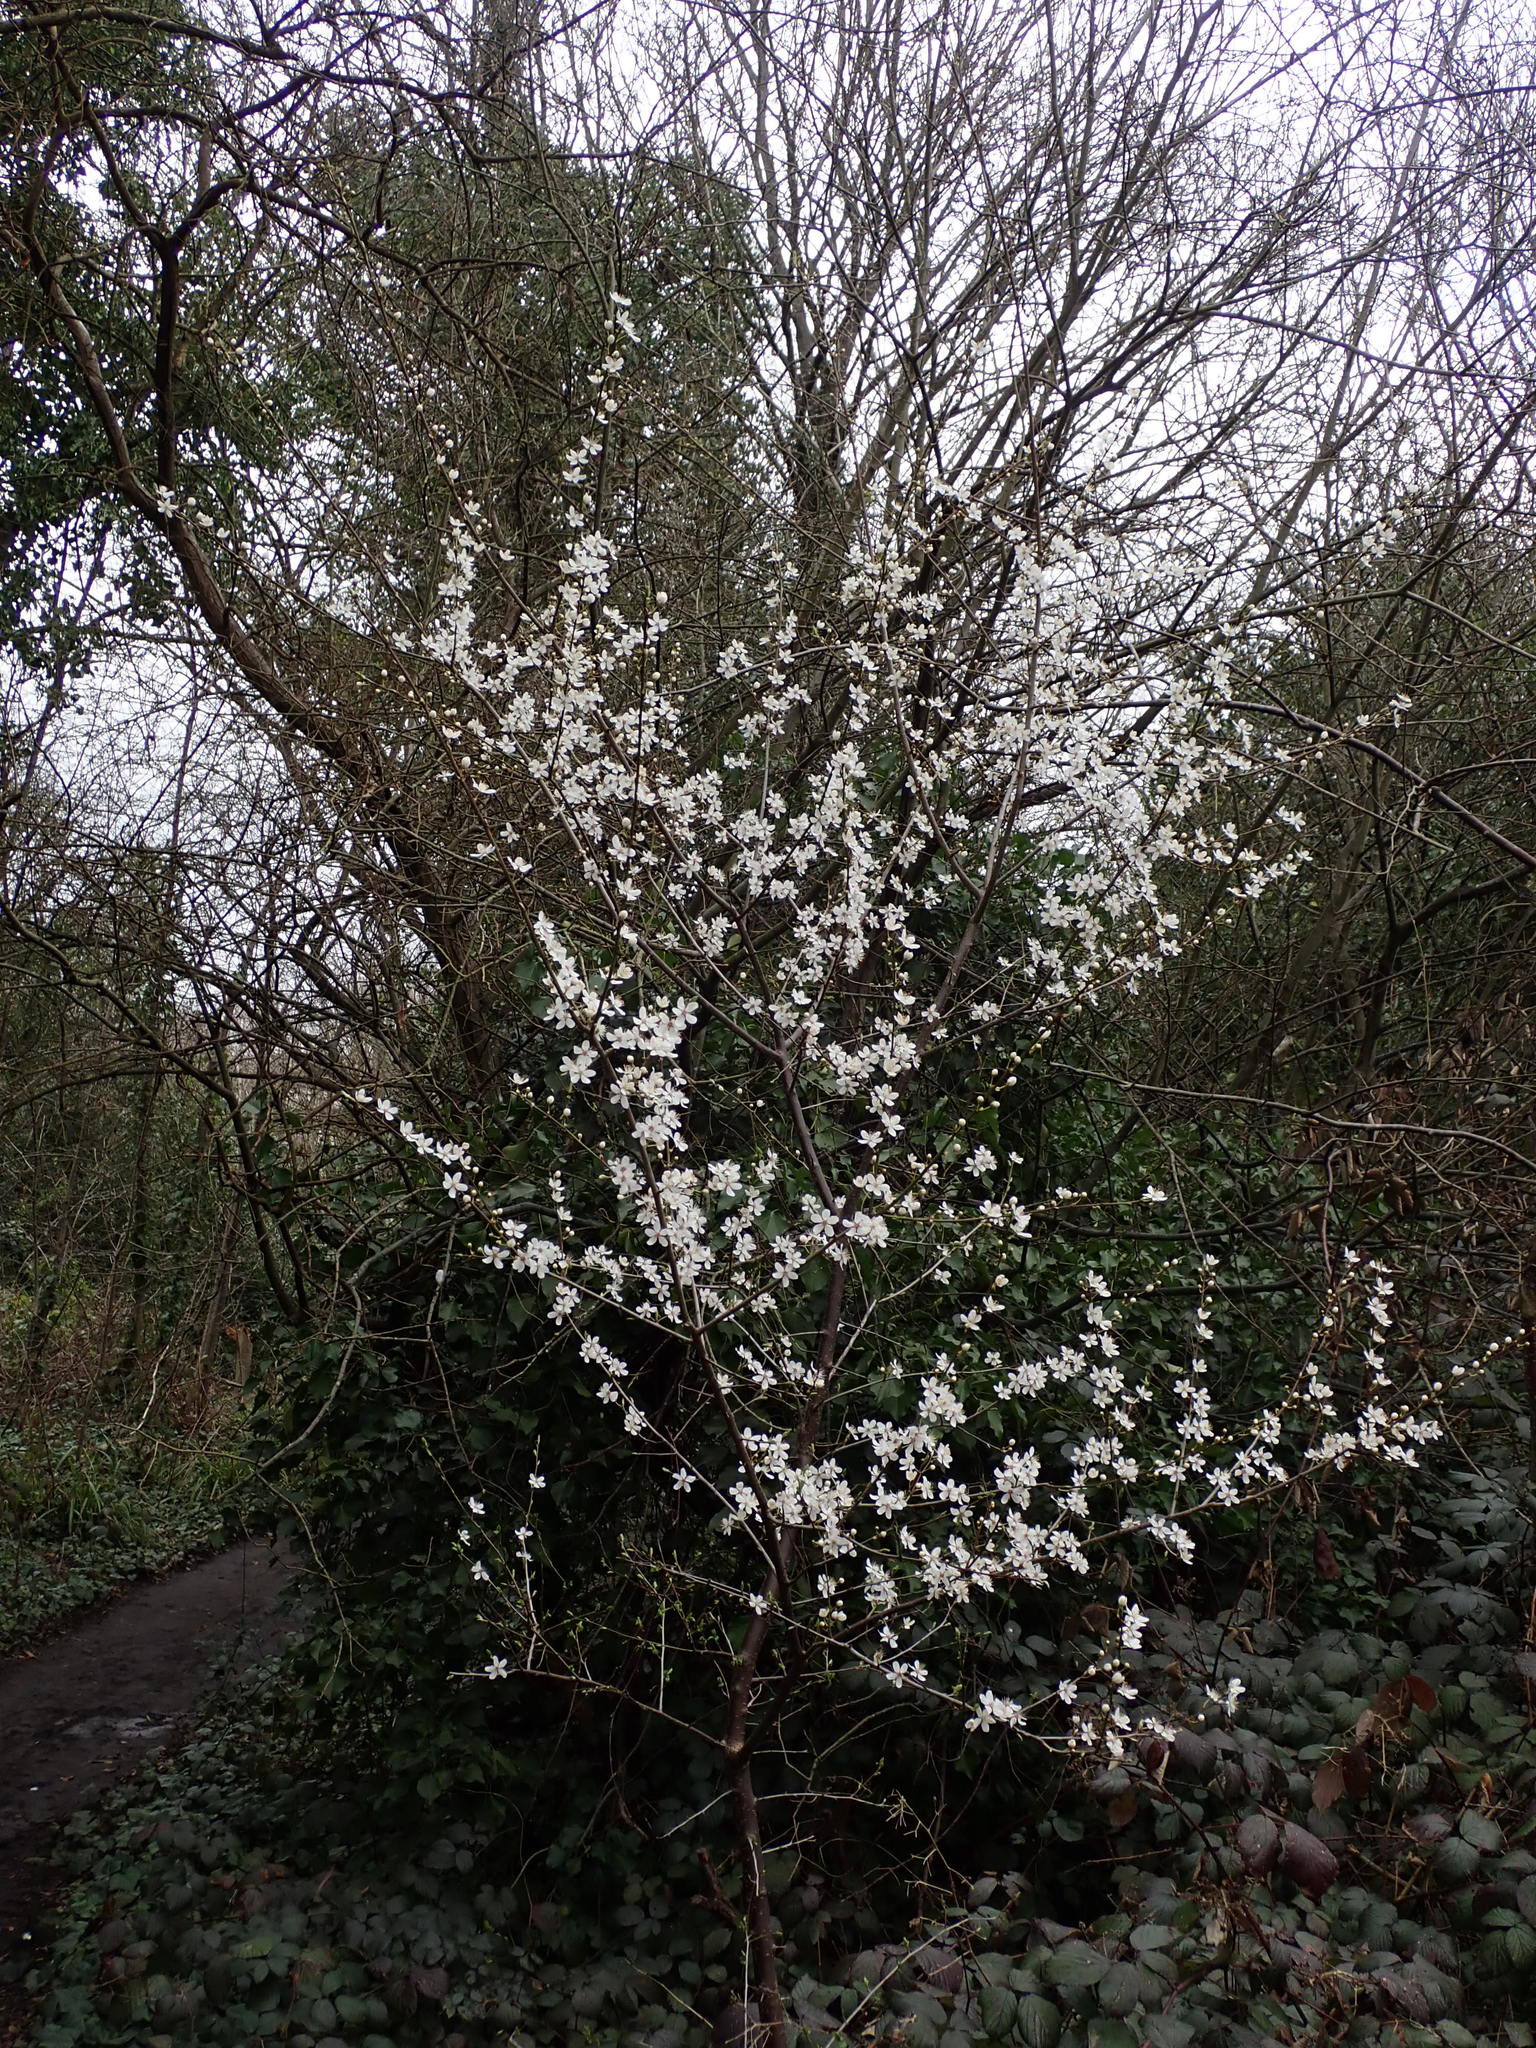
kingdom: Plantae
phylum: Tracheophyta
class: Magnoliopsida
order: Rosales
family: Rosaceae
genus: Prunus
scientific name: Prunus cerasifera
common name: Cherry plum
